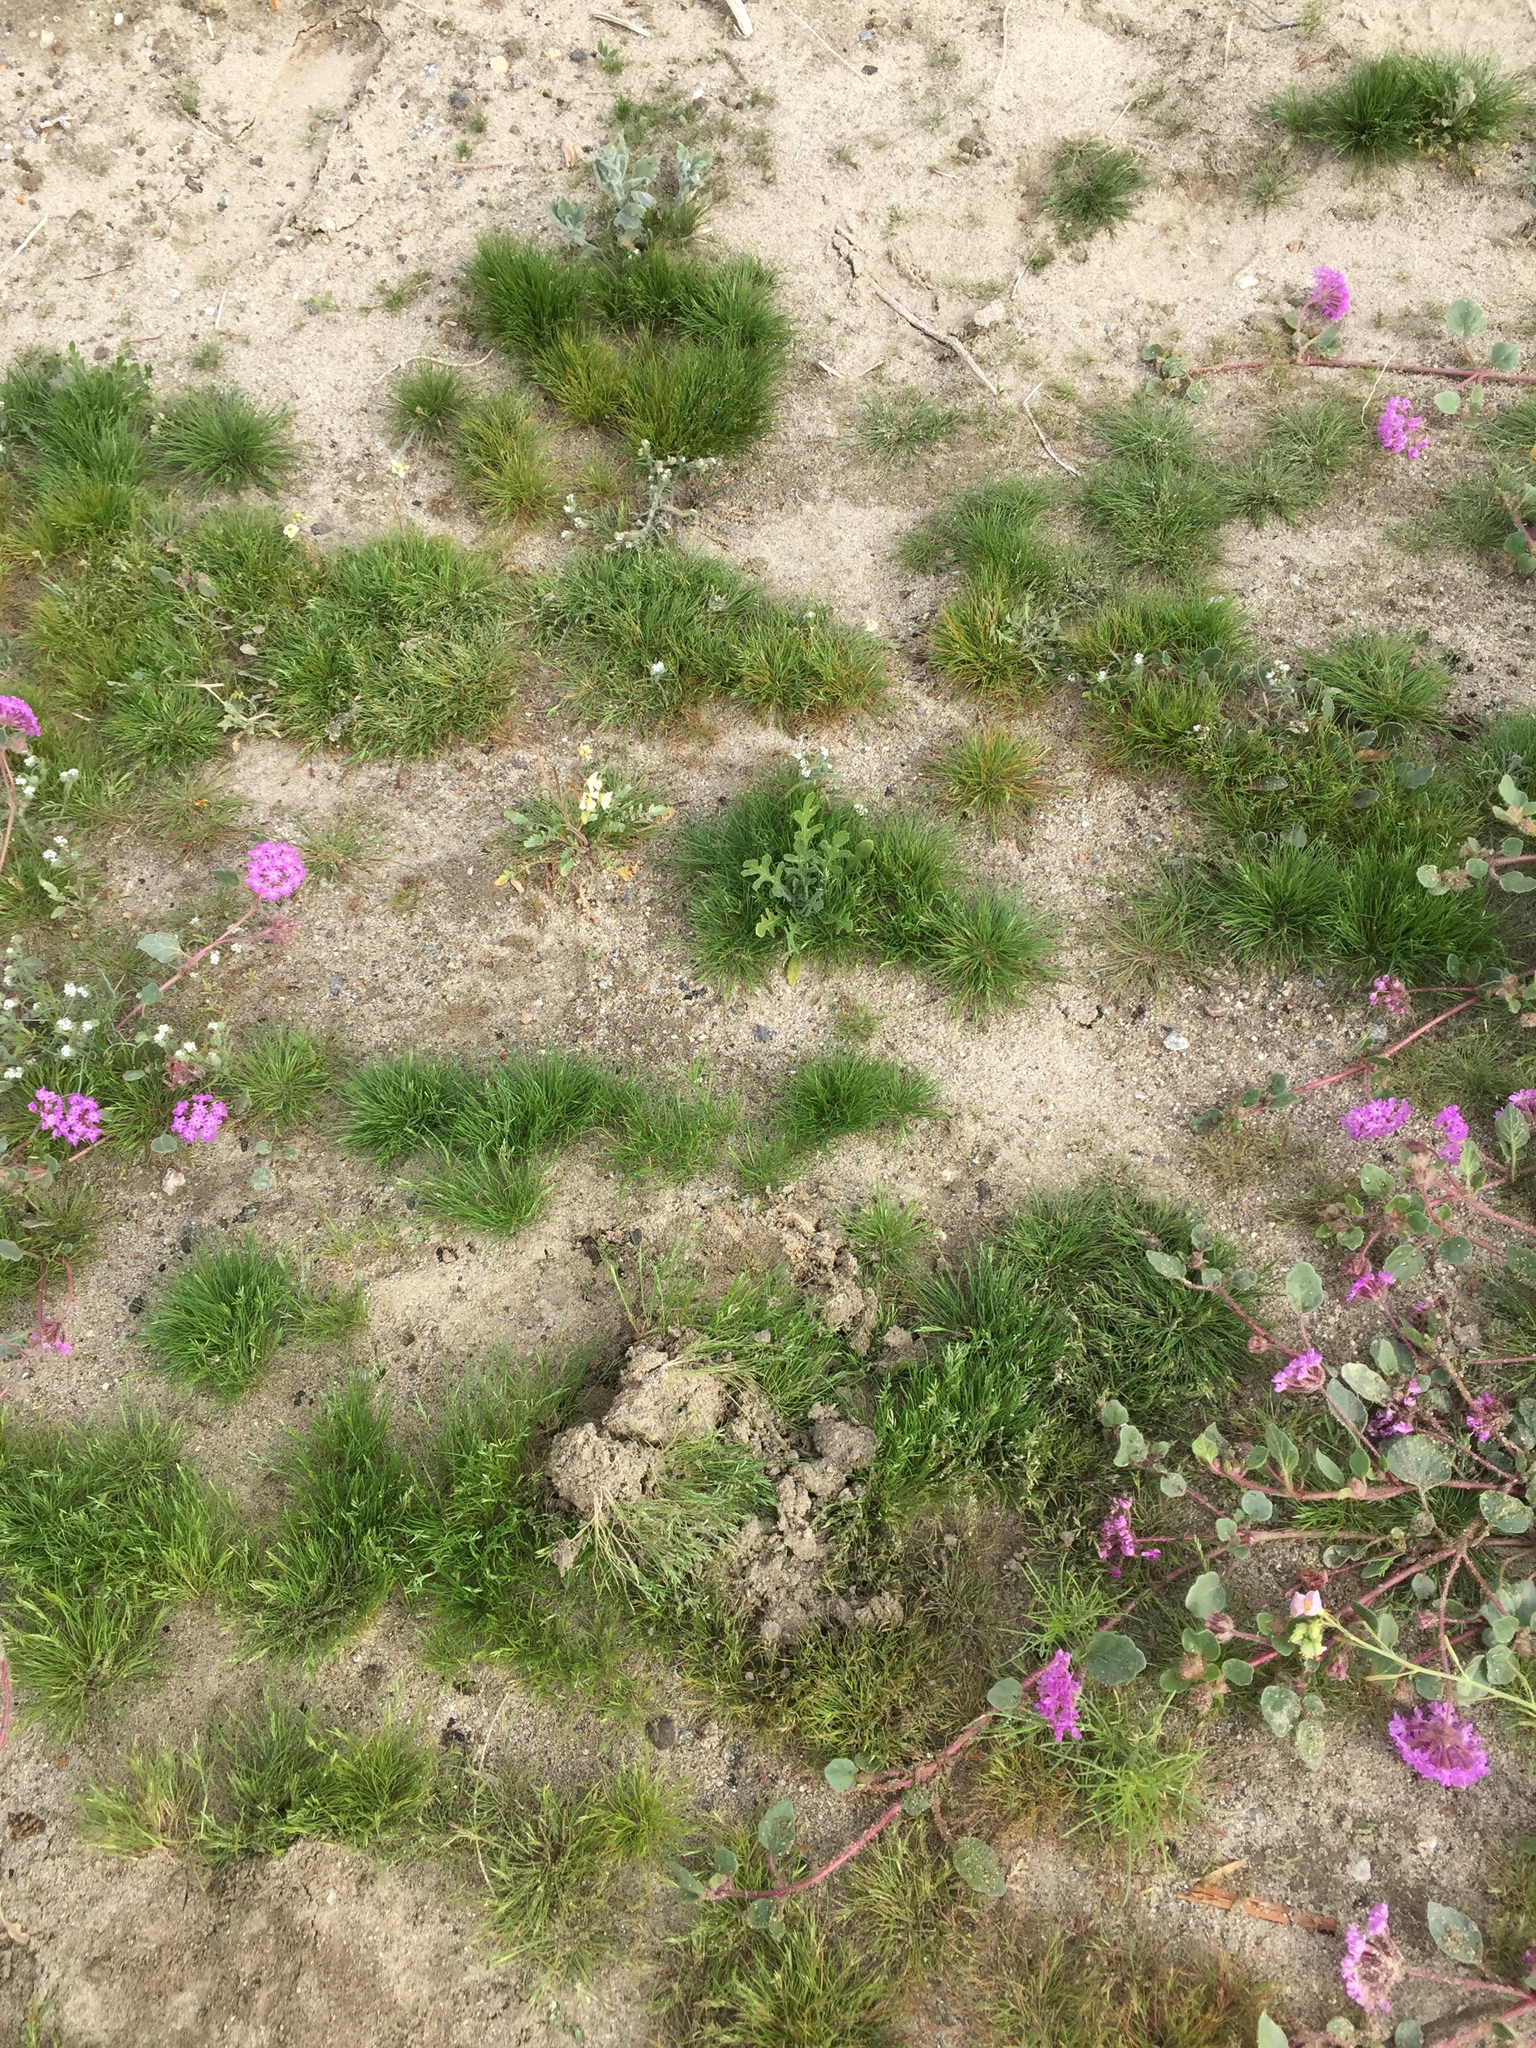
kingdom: Plantae
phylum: Tracheophyta
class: Magnoliopsida
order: Asterales
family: Asteraceae
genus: Volutaria
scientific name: Volutaria tubuliflora
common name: Desert knapweed
